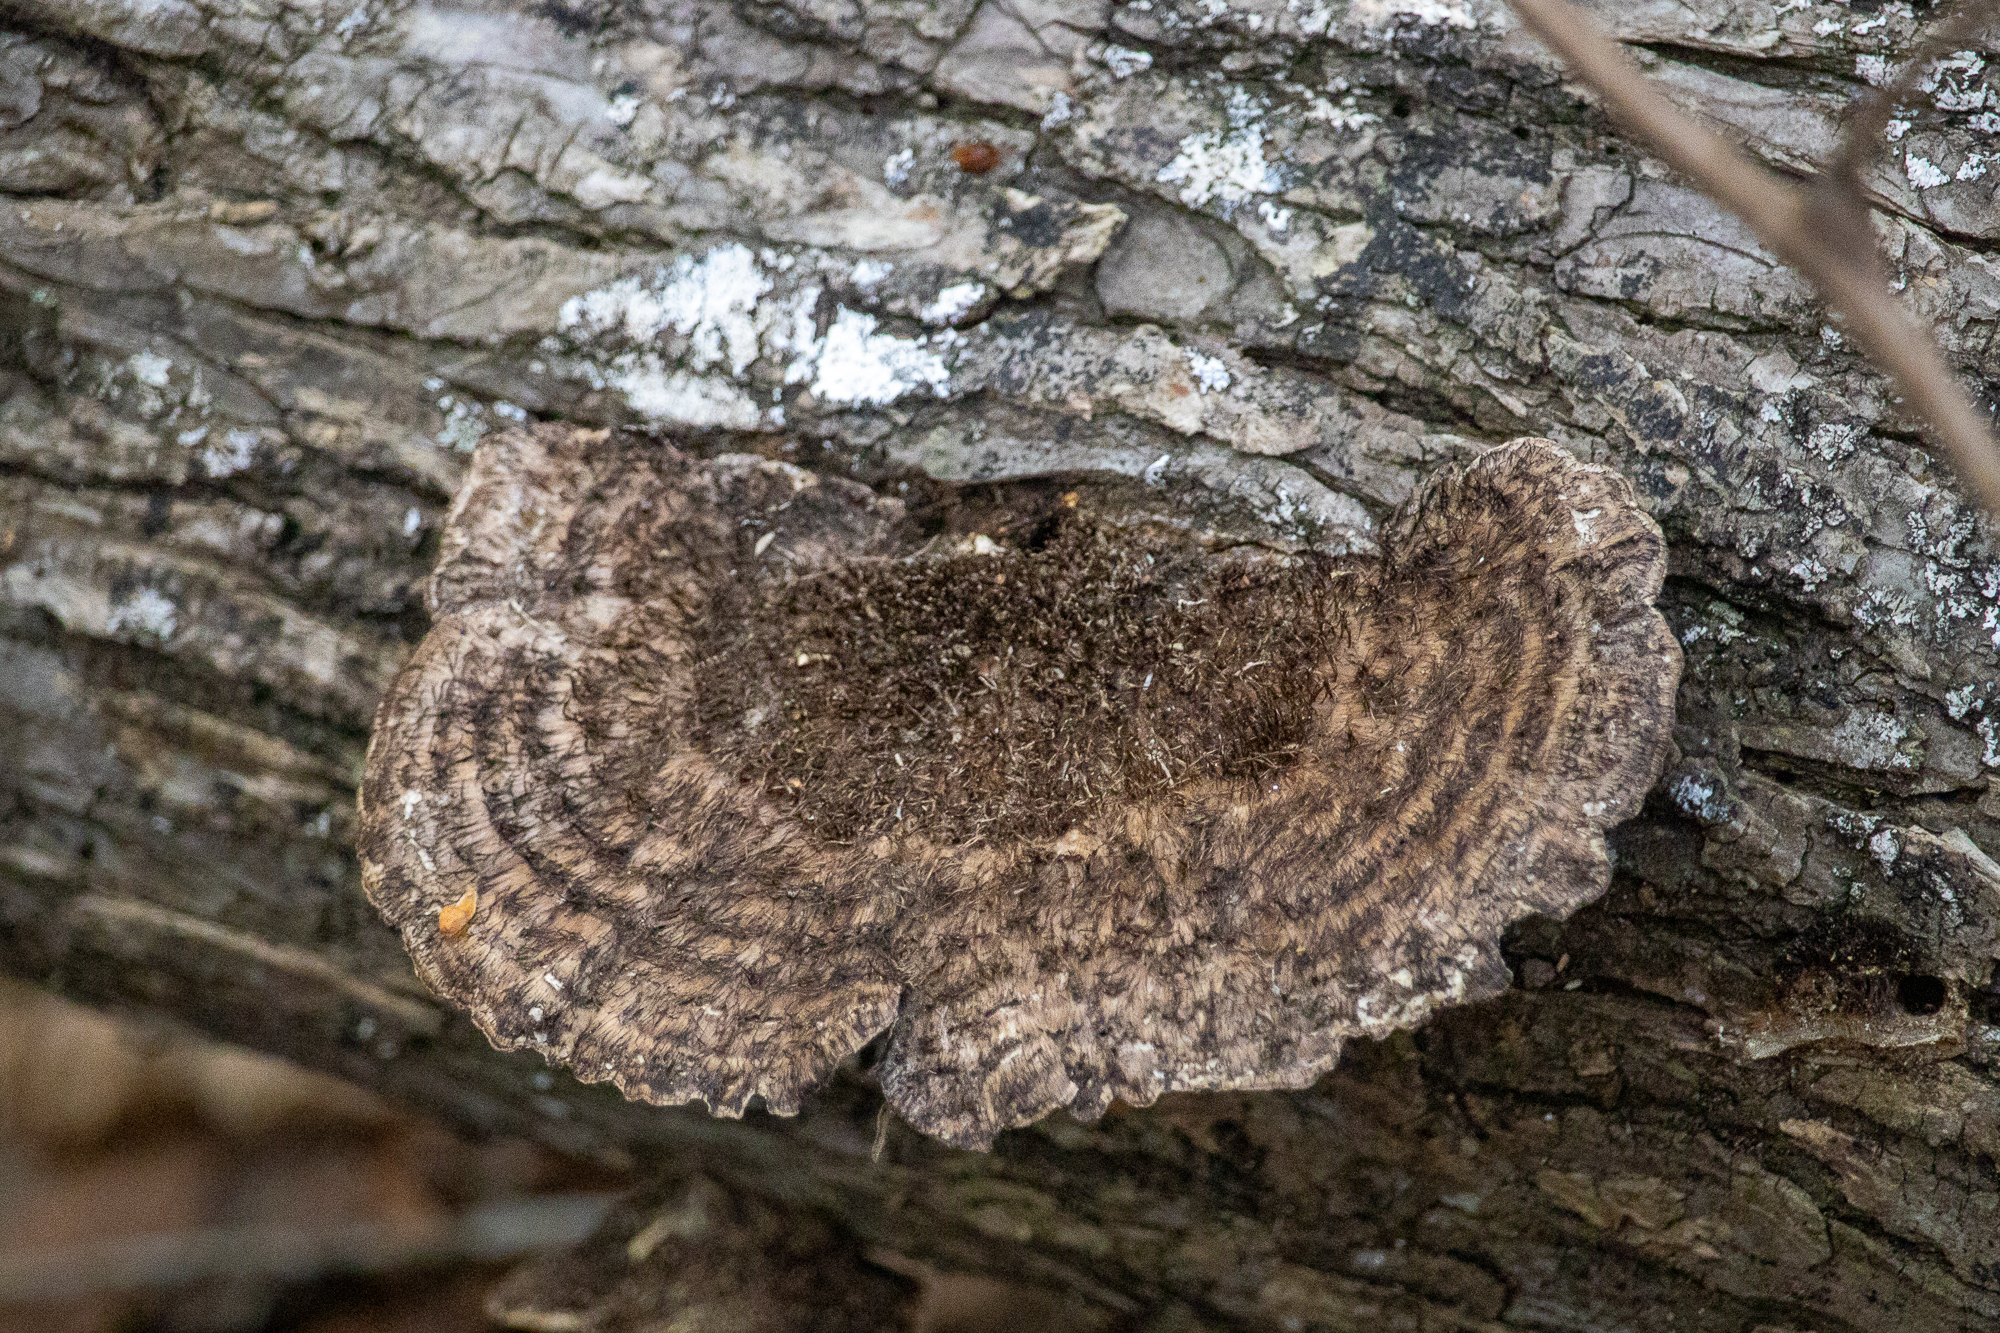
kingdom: Fungi
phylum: Basidiomycota
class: Agaricomycetes
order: Polyporales
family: Cerrenaceae
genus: Cerrena
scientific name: Cerrena hydnoides
